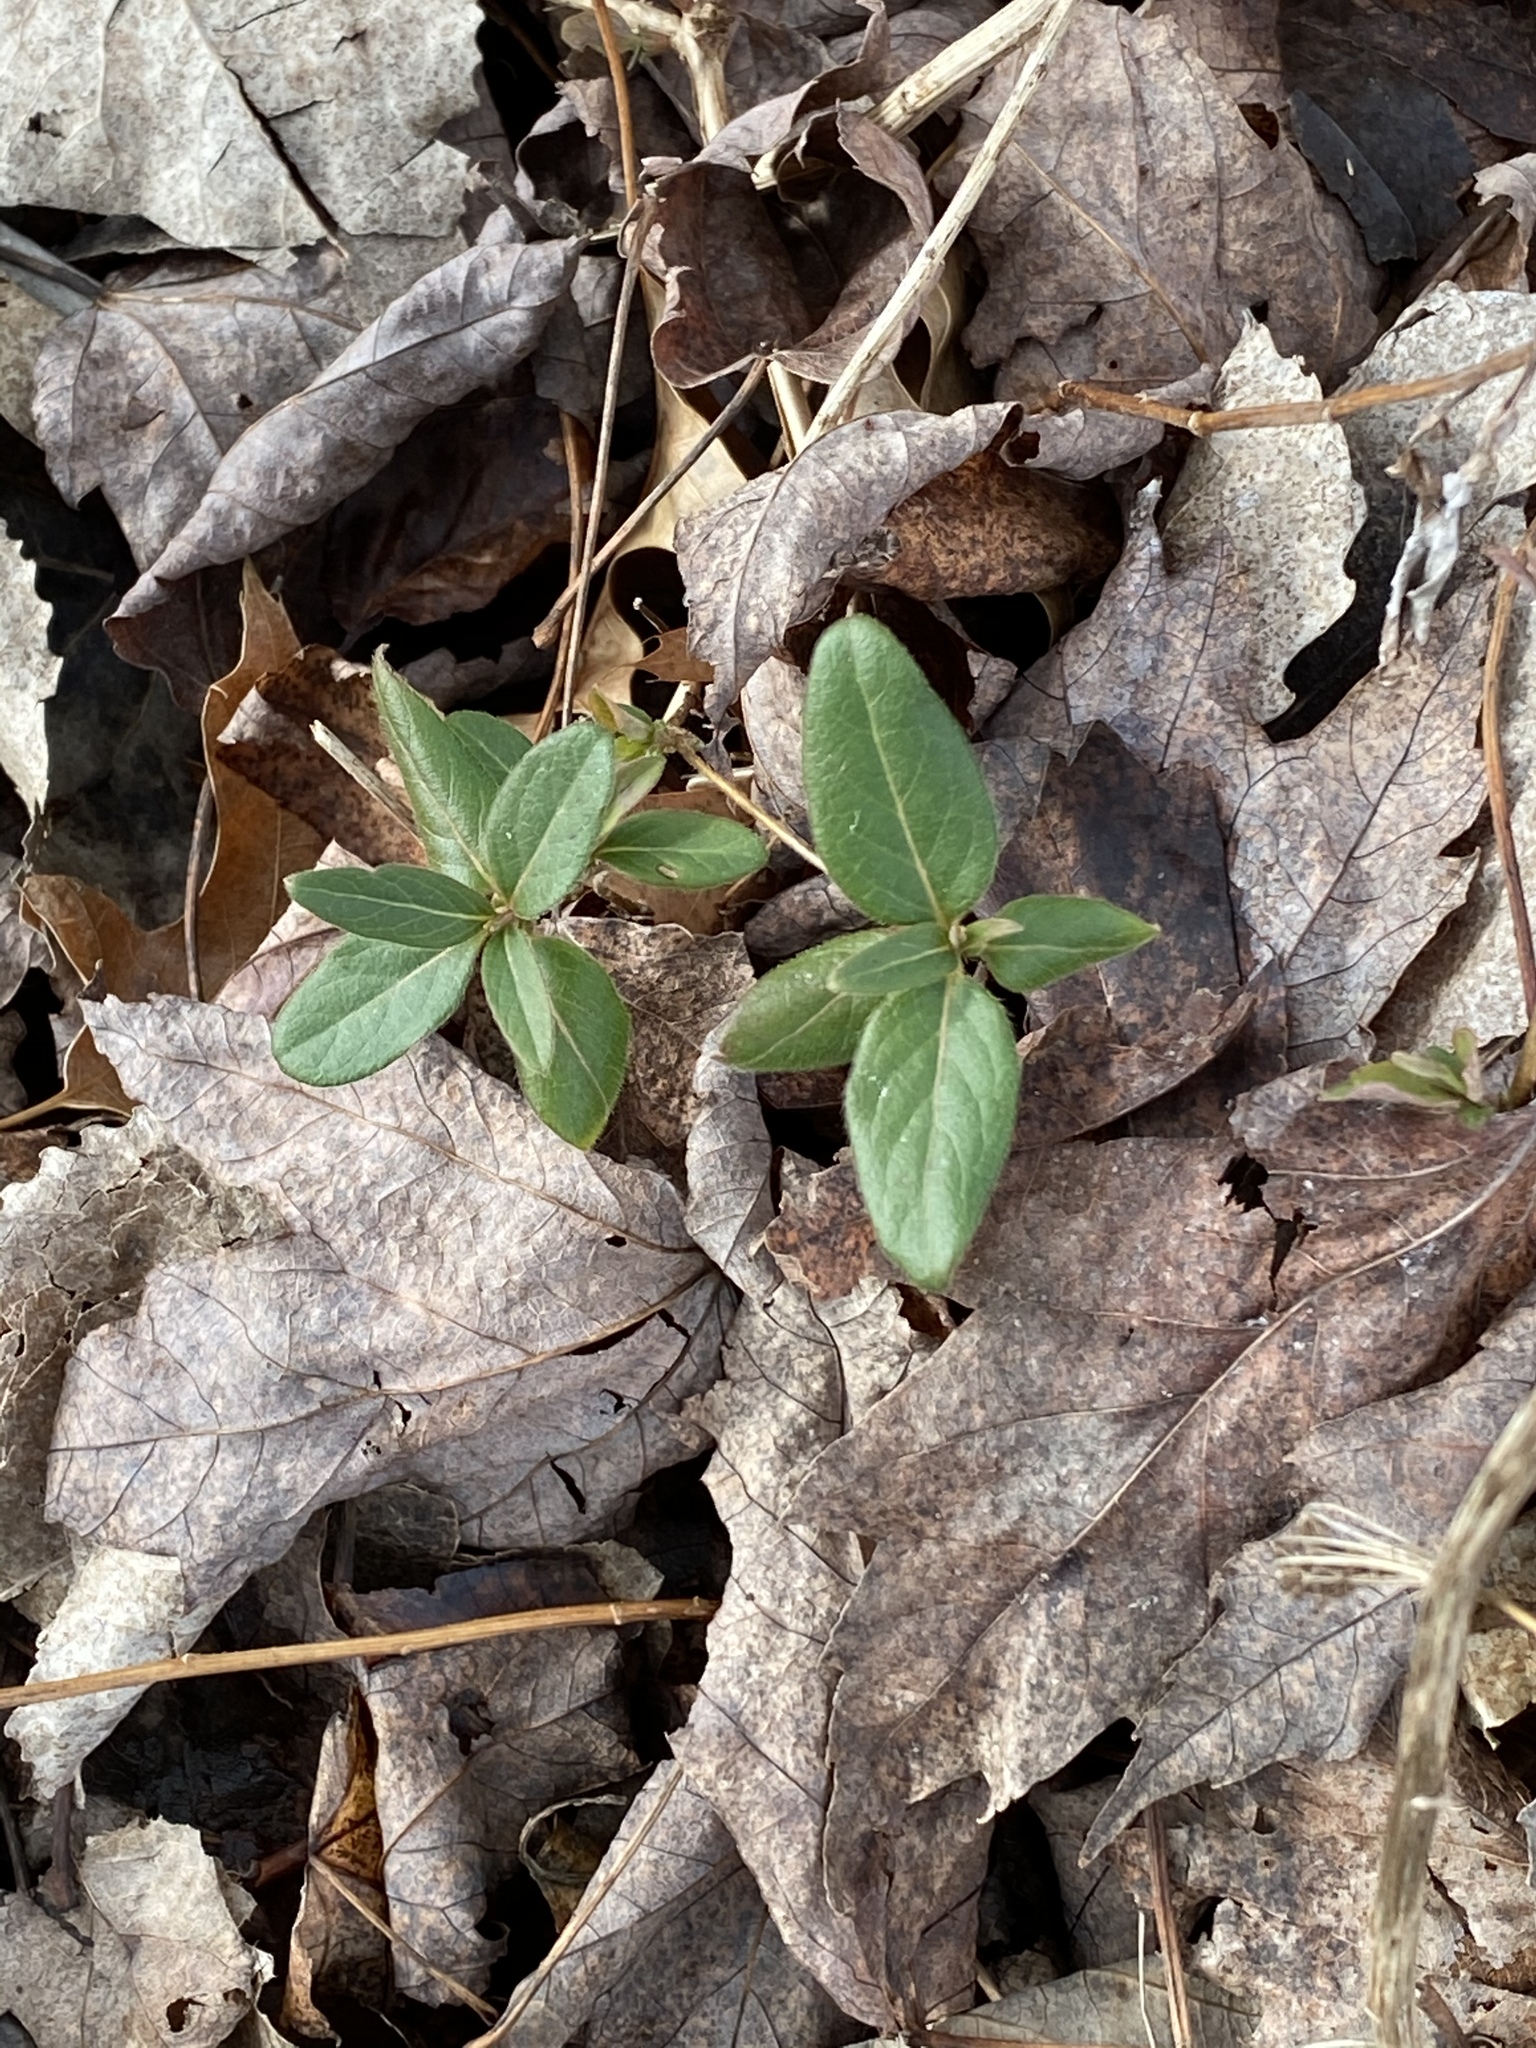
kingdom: Plantae
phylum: Tracheophyta
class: Magnoliopsida
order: Dipsacales
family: Caprifoliaceae
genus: Lonicera
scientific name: Lonicera japonica
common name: Japanese honeysuckle
